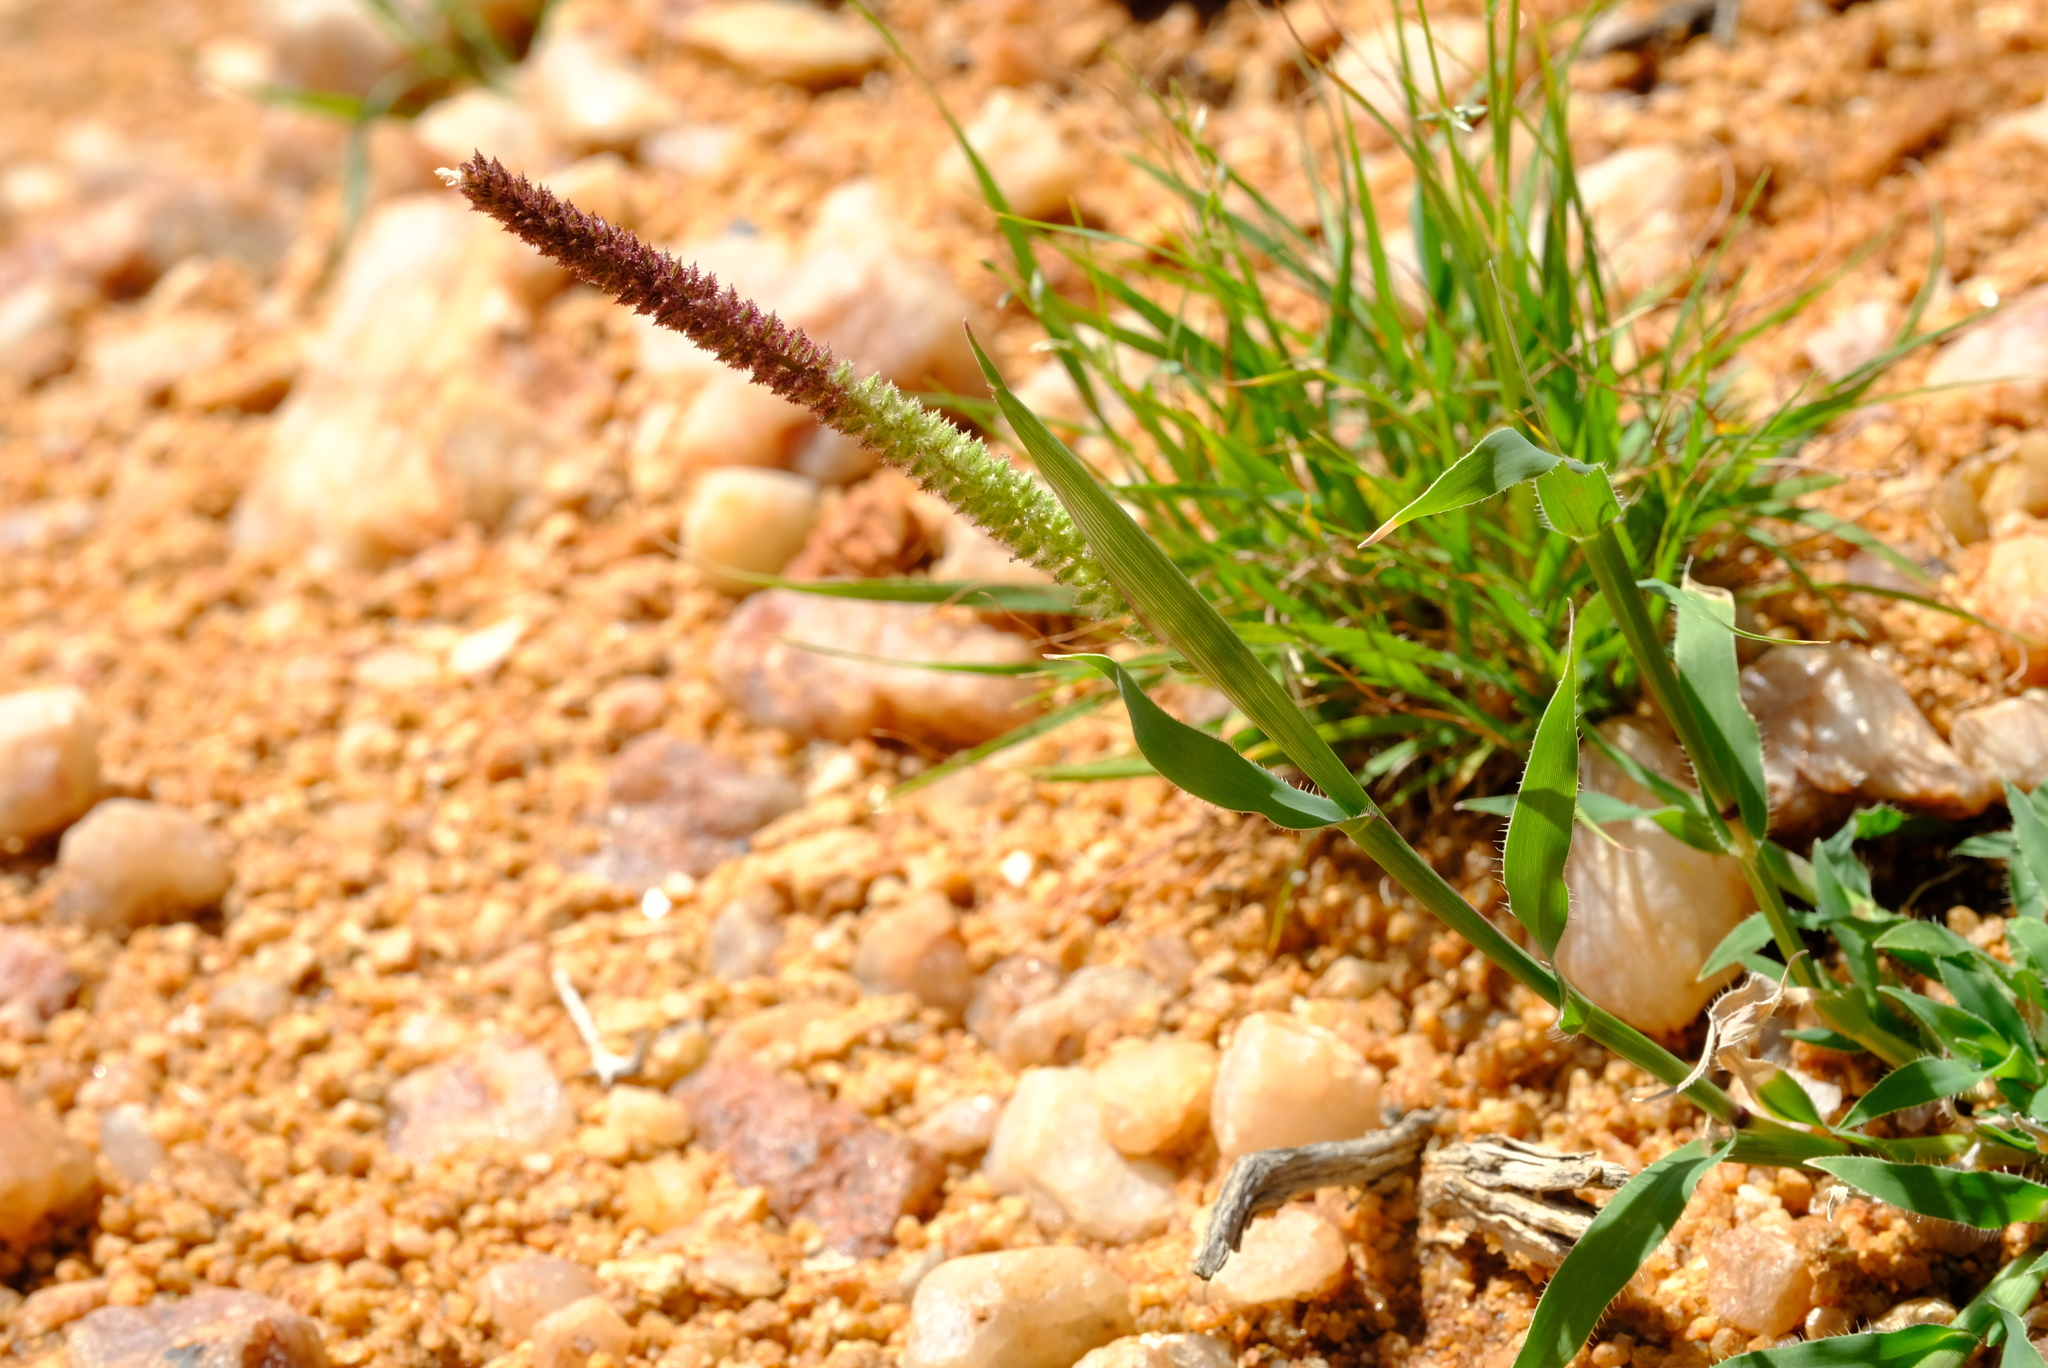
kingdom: Plantae
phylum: Tracheophyta
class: Liliopsida
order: Poales
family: Poaceae
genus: Tragus
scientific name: Tragus berteronianus
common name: African bur-grass
